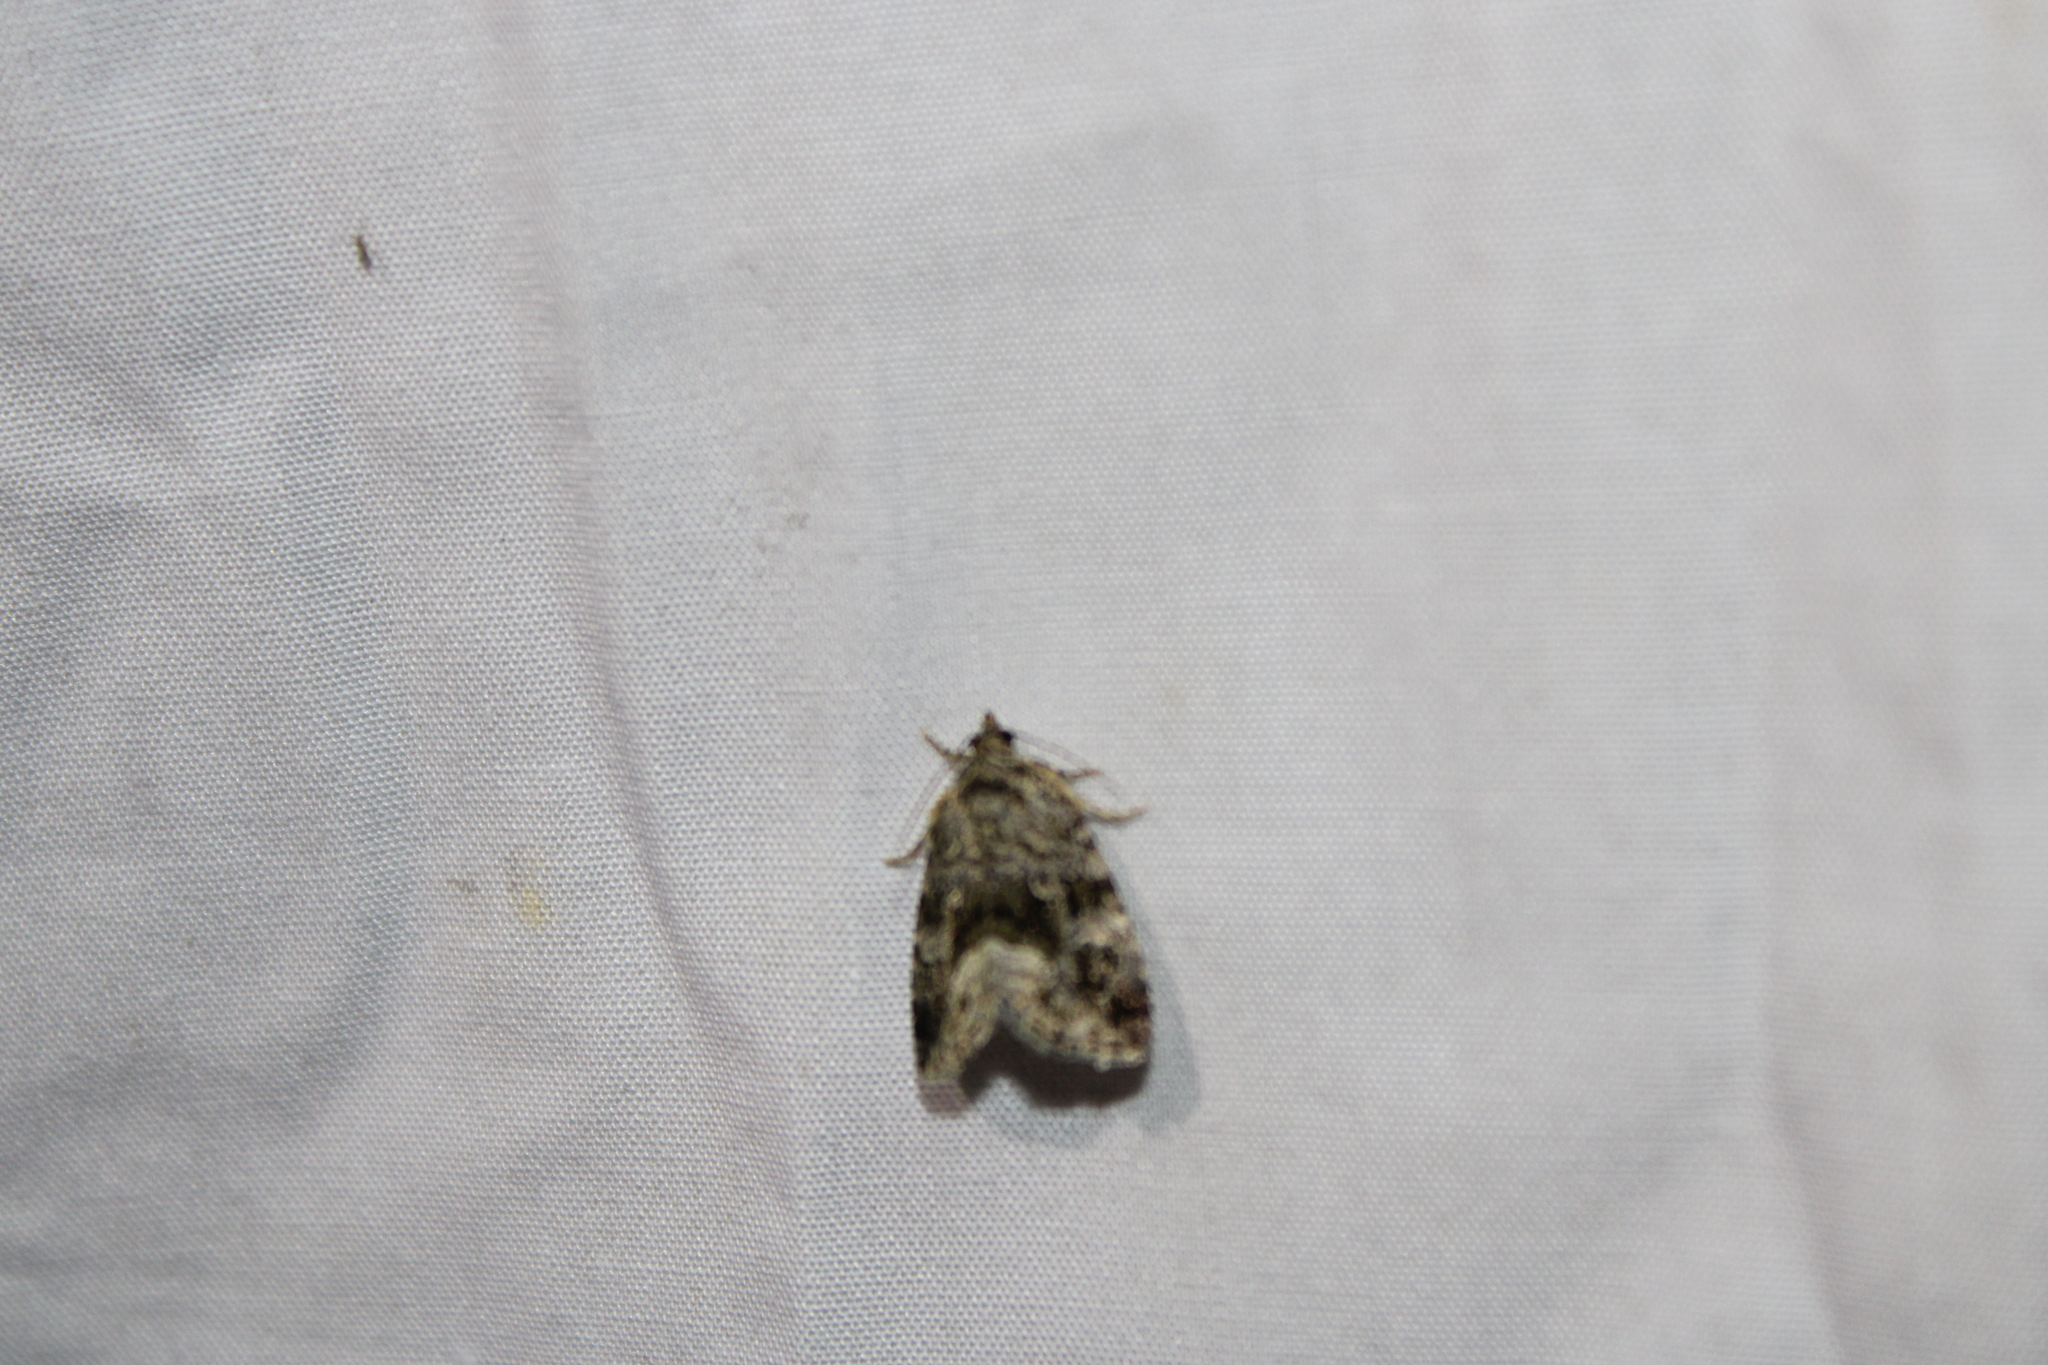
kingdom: Animalia
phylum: Arthropoda
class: Insecta
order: Lepidoptera
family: Noctuidae
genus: Protodeltote
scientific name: Protodeltote muscosula
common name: Large mossy glyph
